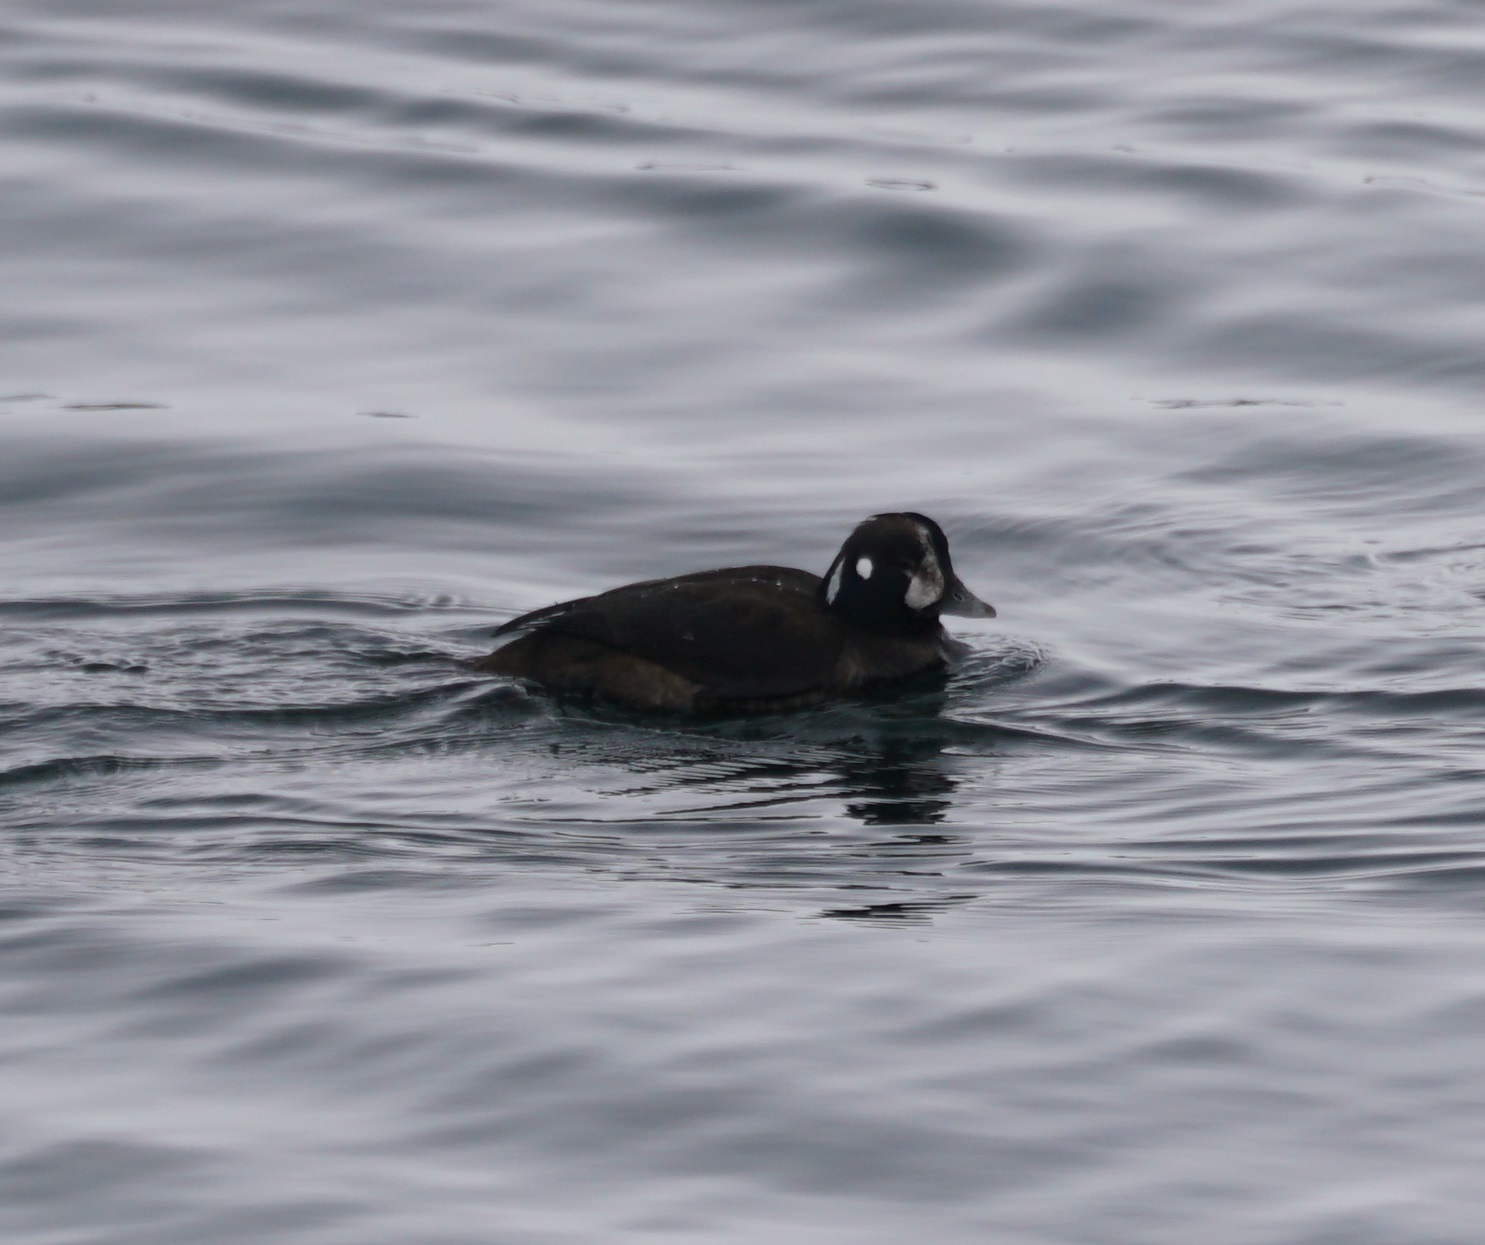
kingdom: Animalia
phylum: Chordata
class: Aves
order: Anseriformes
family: Anatidae
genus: Histrionicus
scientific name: Histrionicus histrionicus
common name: Harlequin duck
